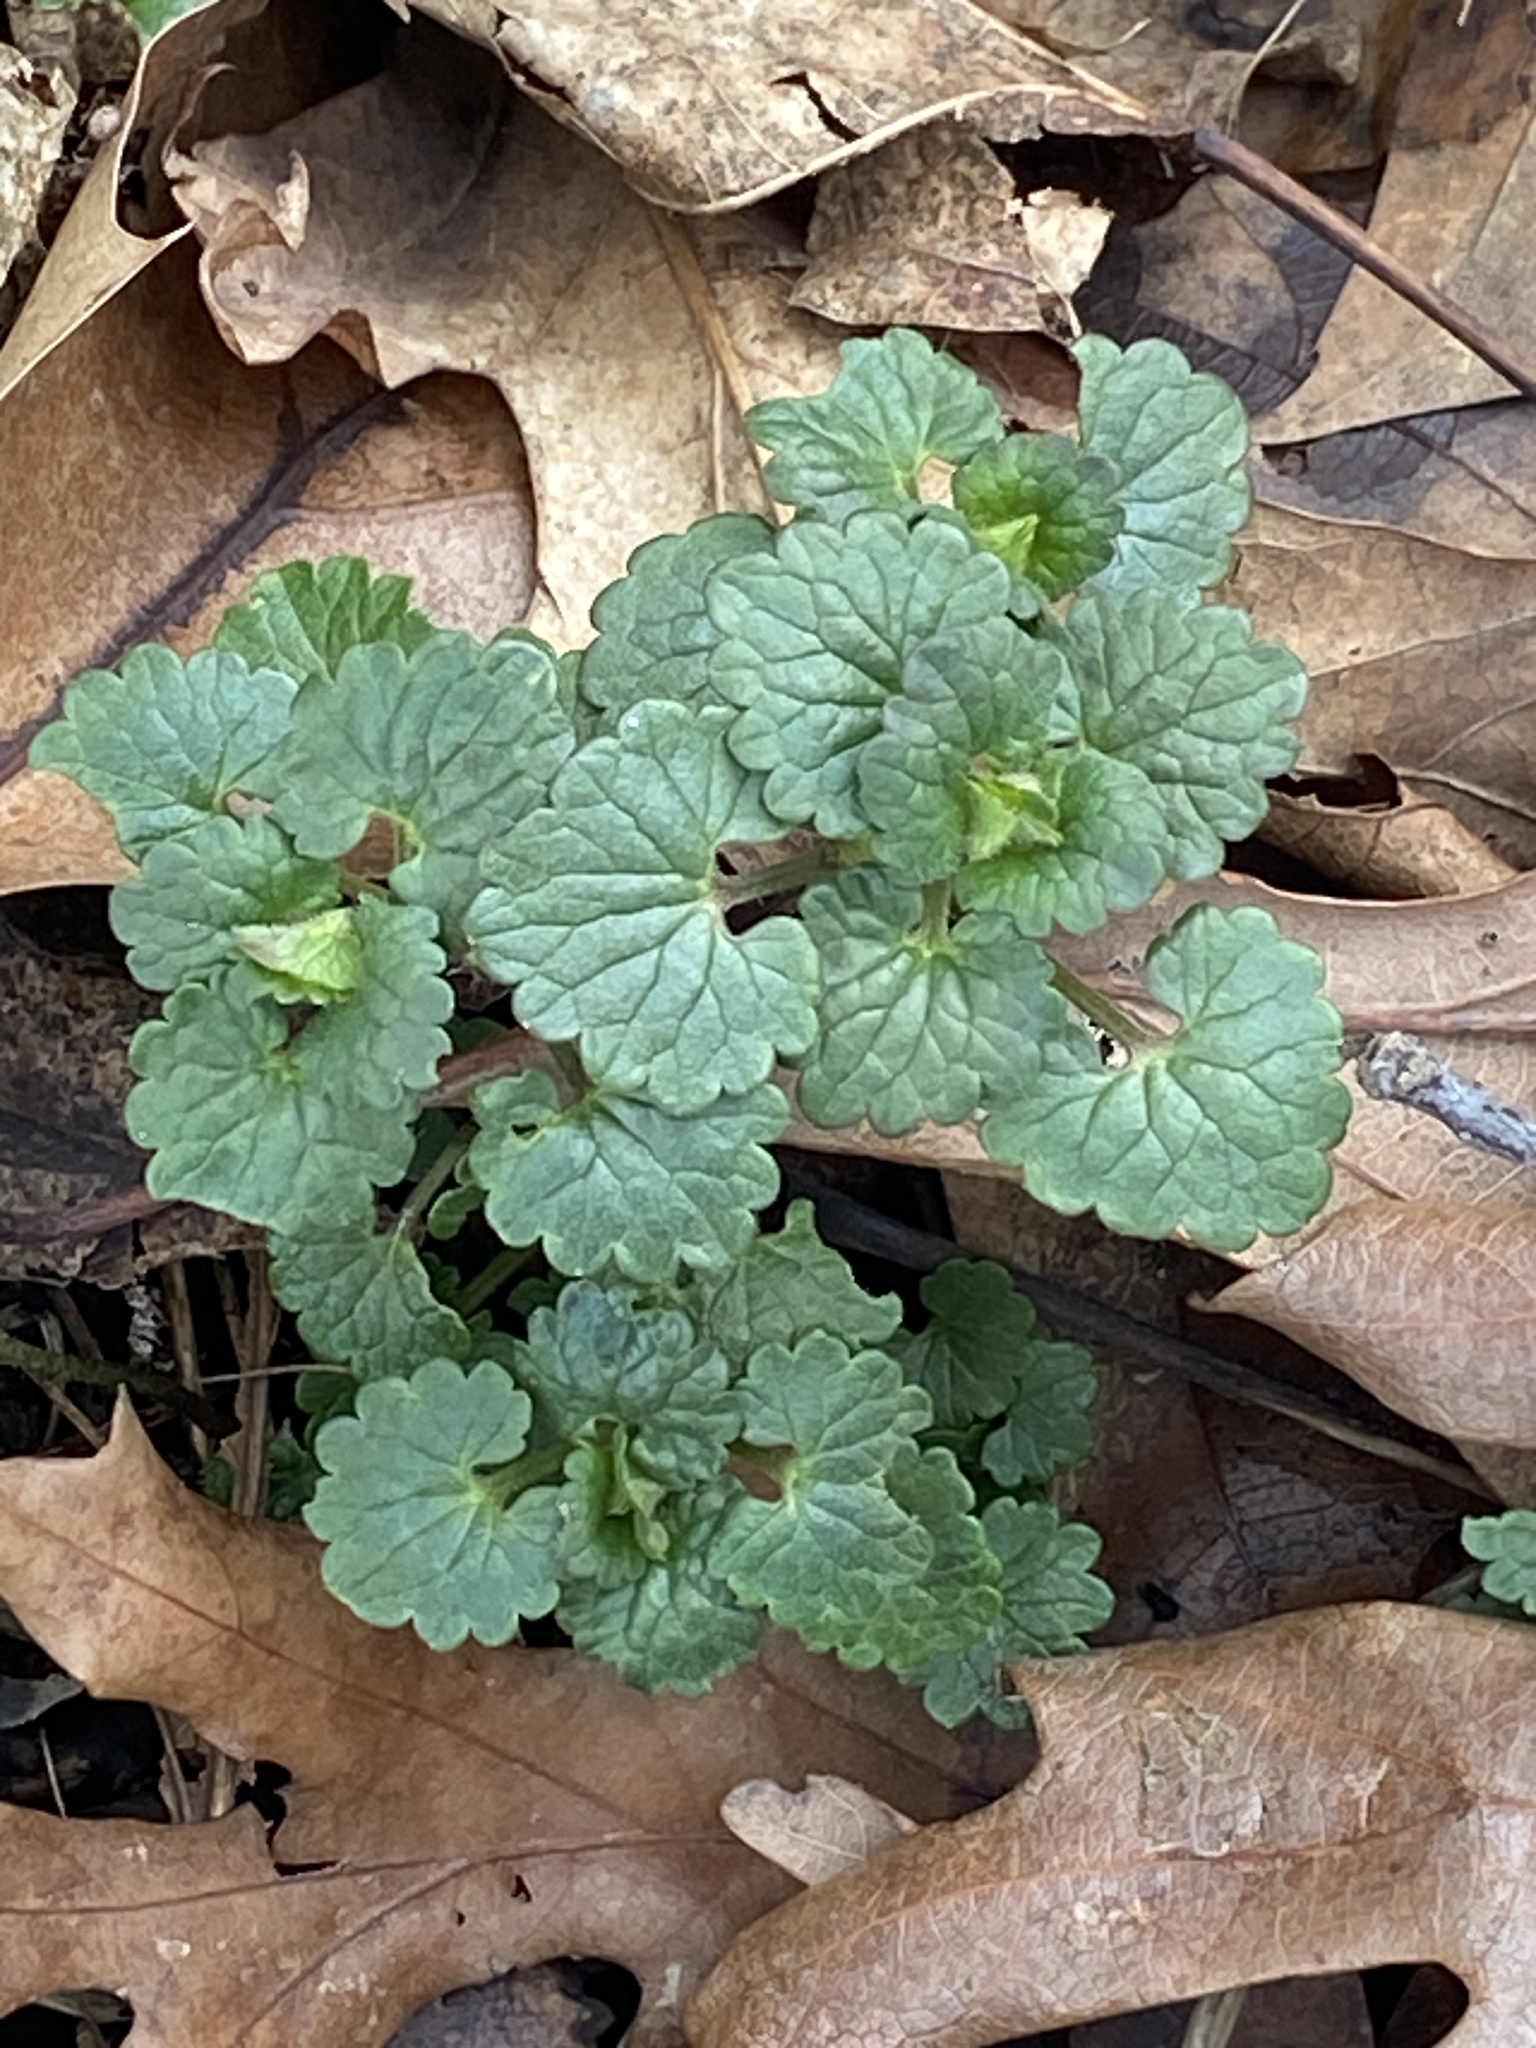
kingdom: Plantae
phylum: Tracheophyta
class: Magnoliopsida
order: Lamiales
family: Lamiaceae
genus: Glechoma
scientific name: Glechoma hederacea
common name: Ground ivy
